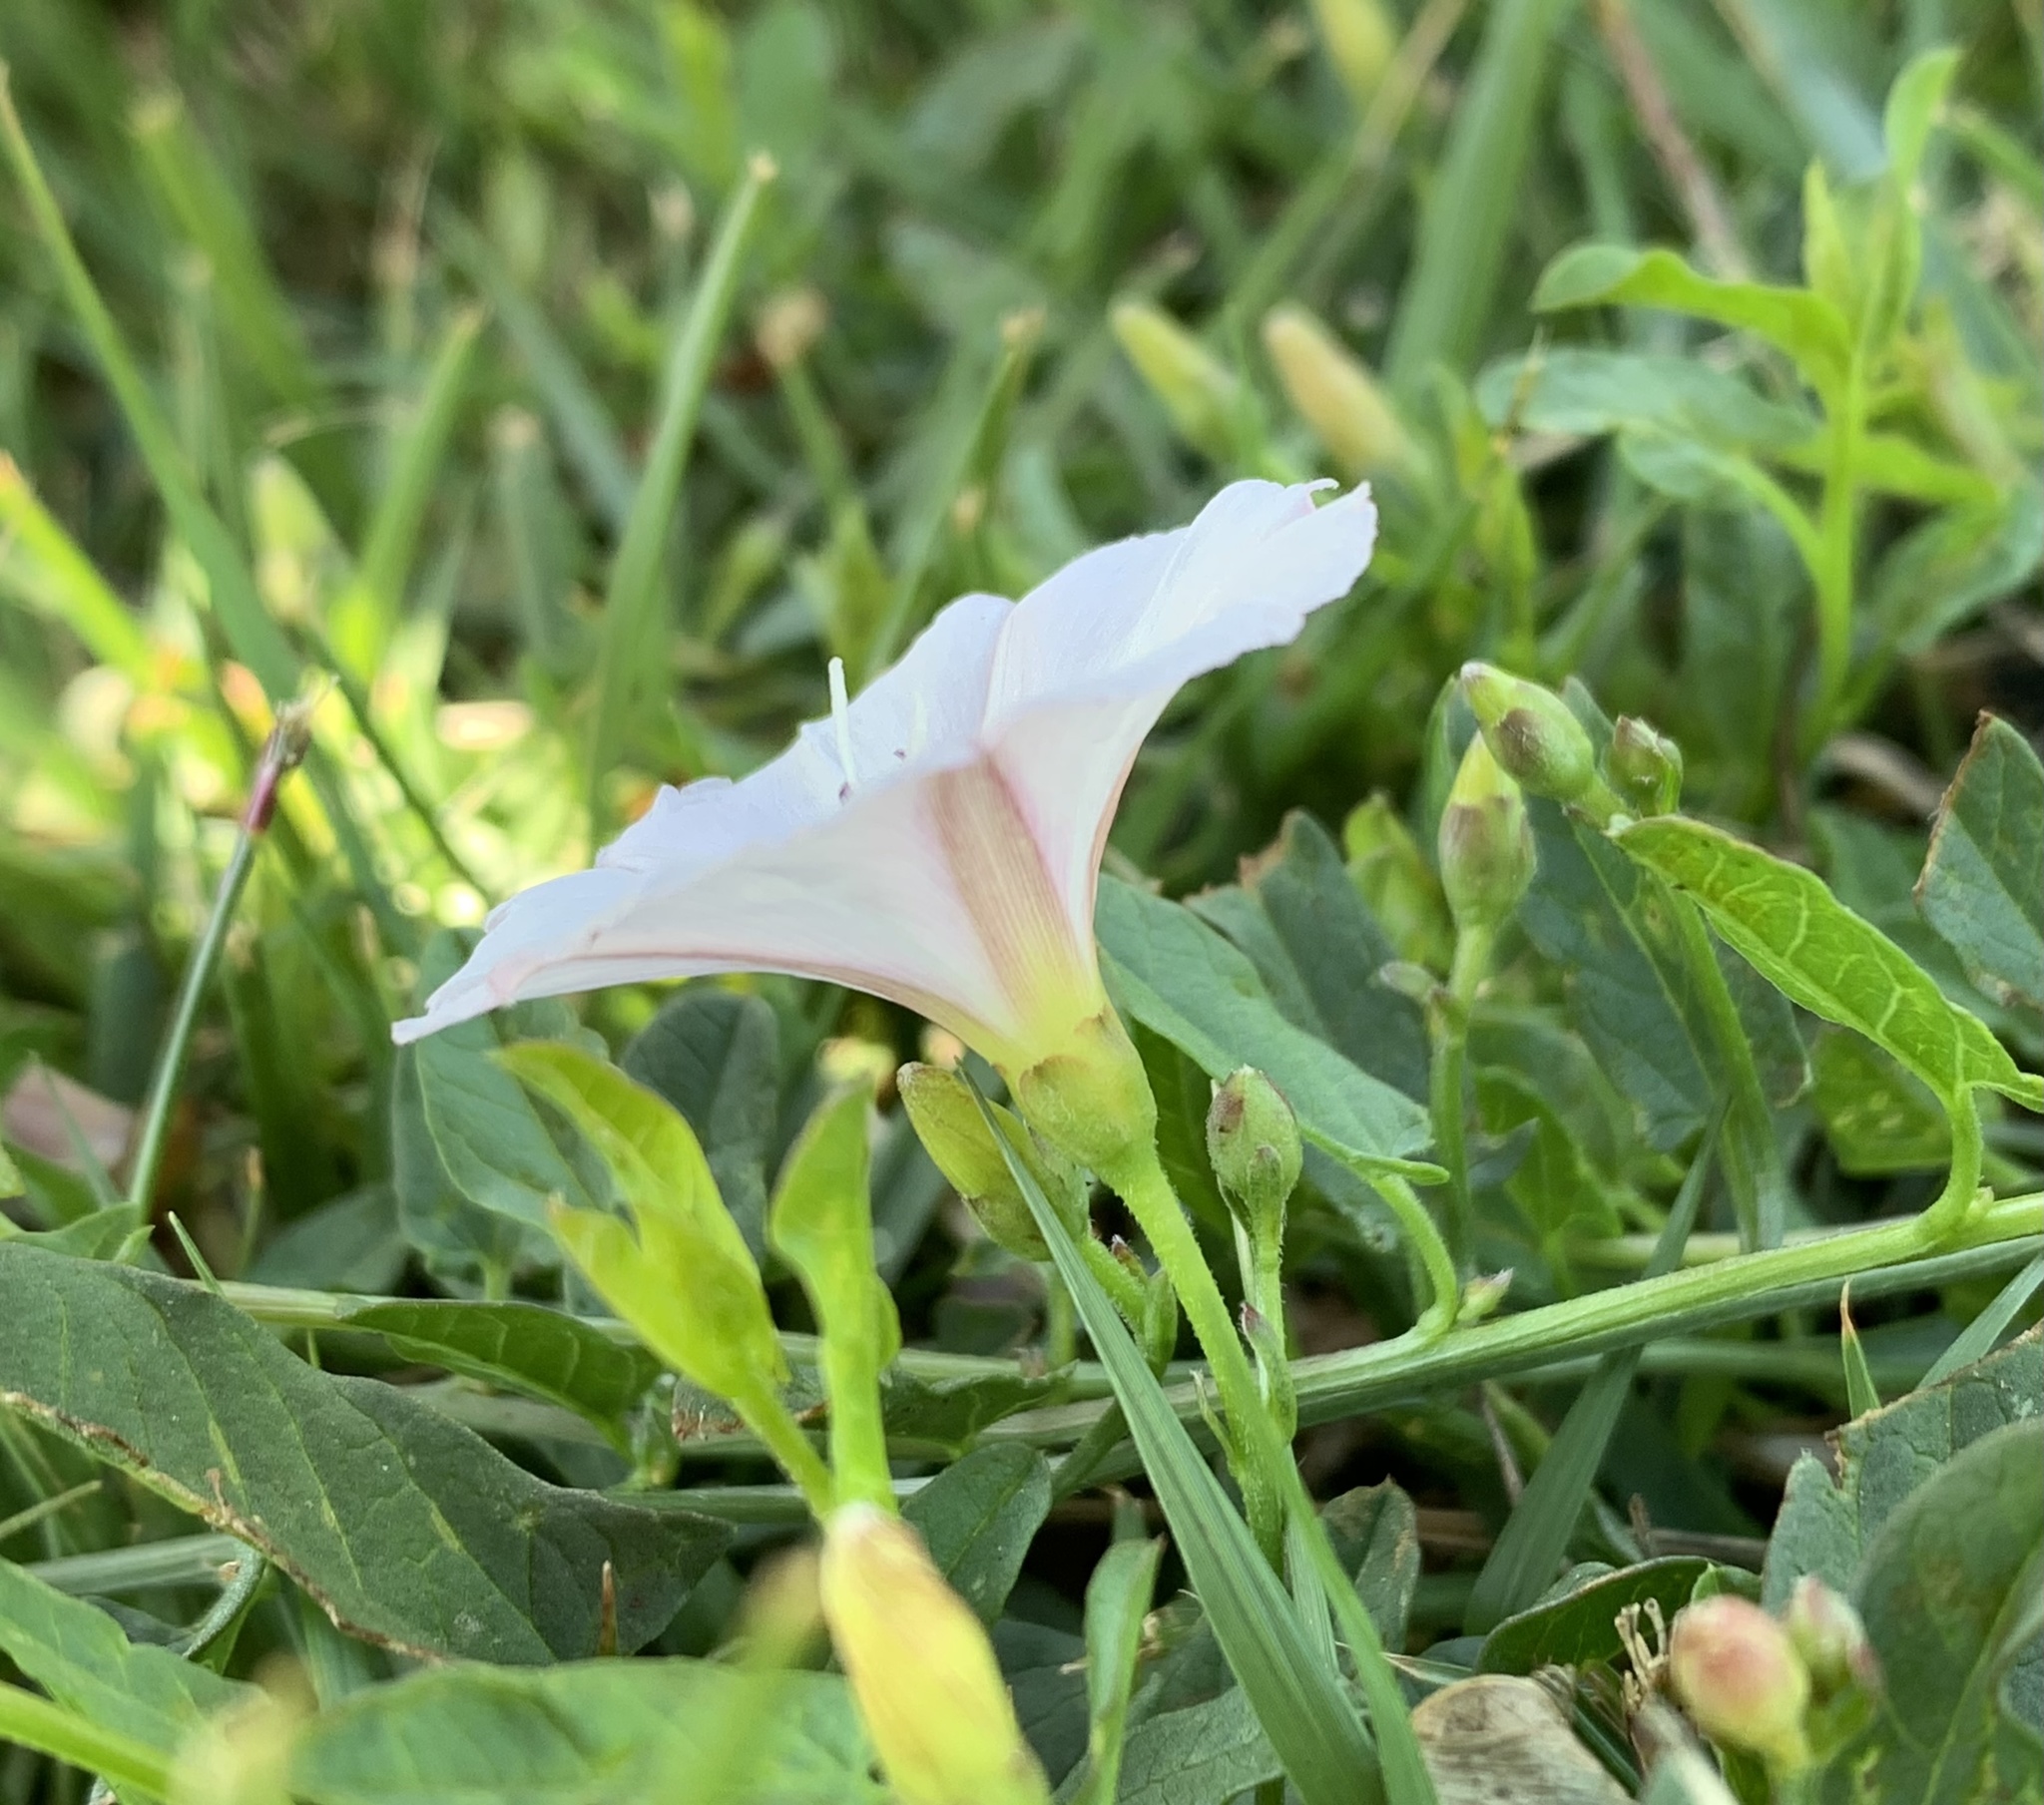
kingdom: Plantae
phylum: Tracheophyta
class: Magnoliopsida
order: Solanales
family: Convolvulaceae
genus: Convolvulus
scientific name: Convolvulus arvensis
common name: Field bindweed
